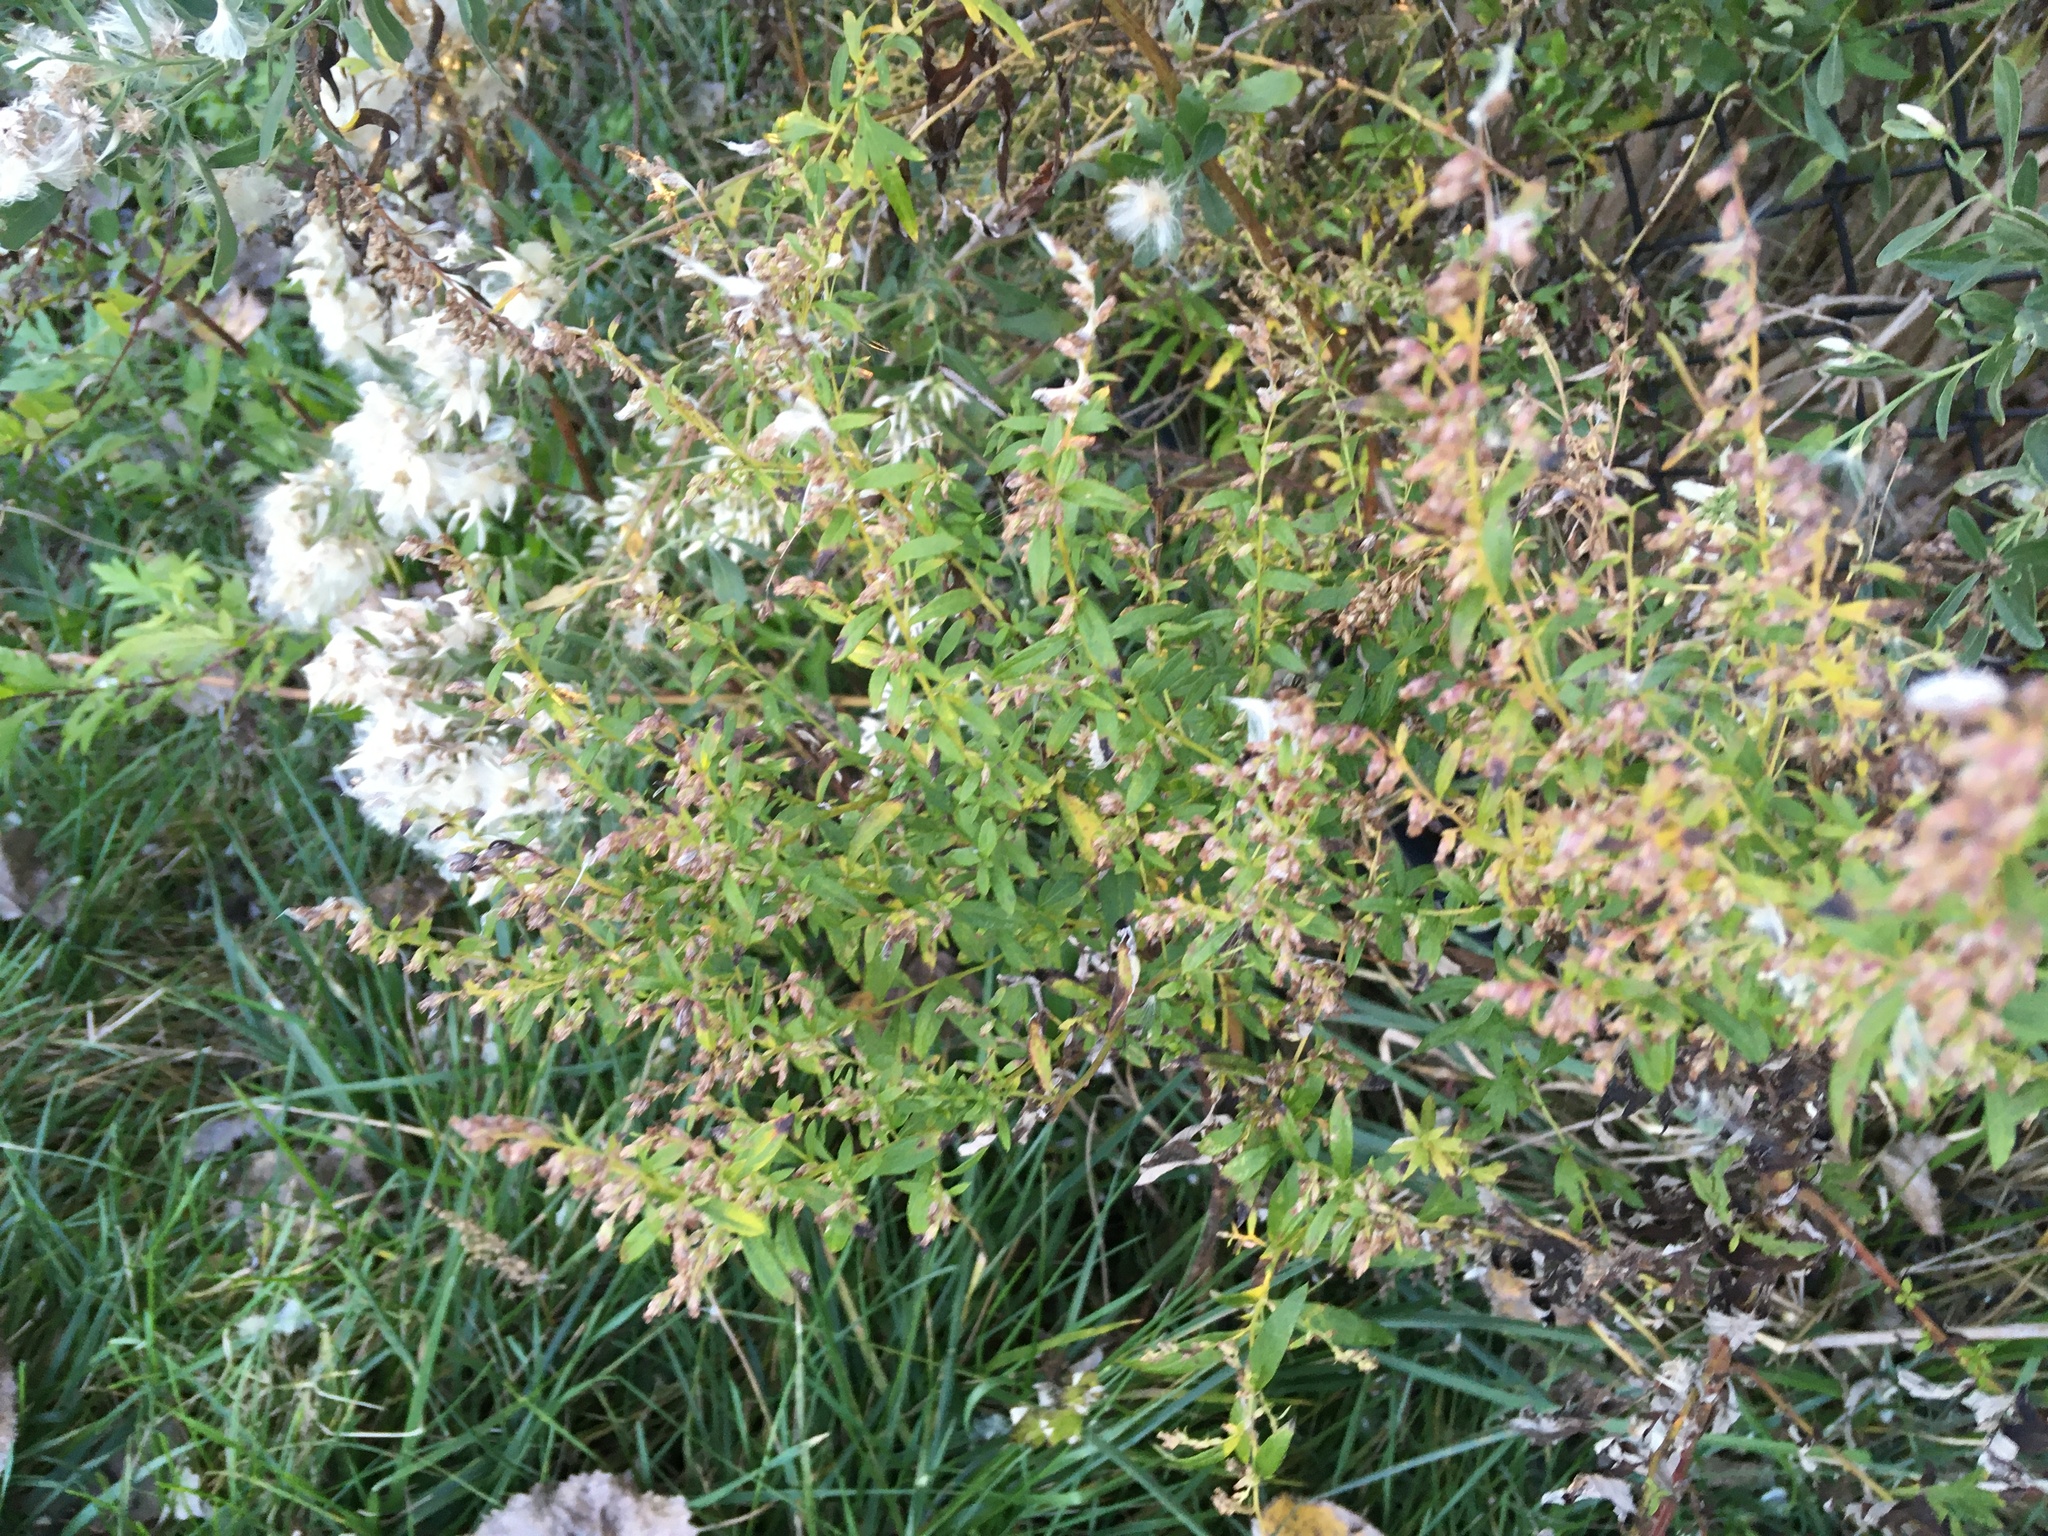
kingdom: Plantae
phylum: Tracheophyta
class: Magnoliopsida
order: Asterales
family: Asteraceae
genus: Artemisia
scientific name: Artemisia vulgaris
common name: Mugwort
